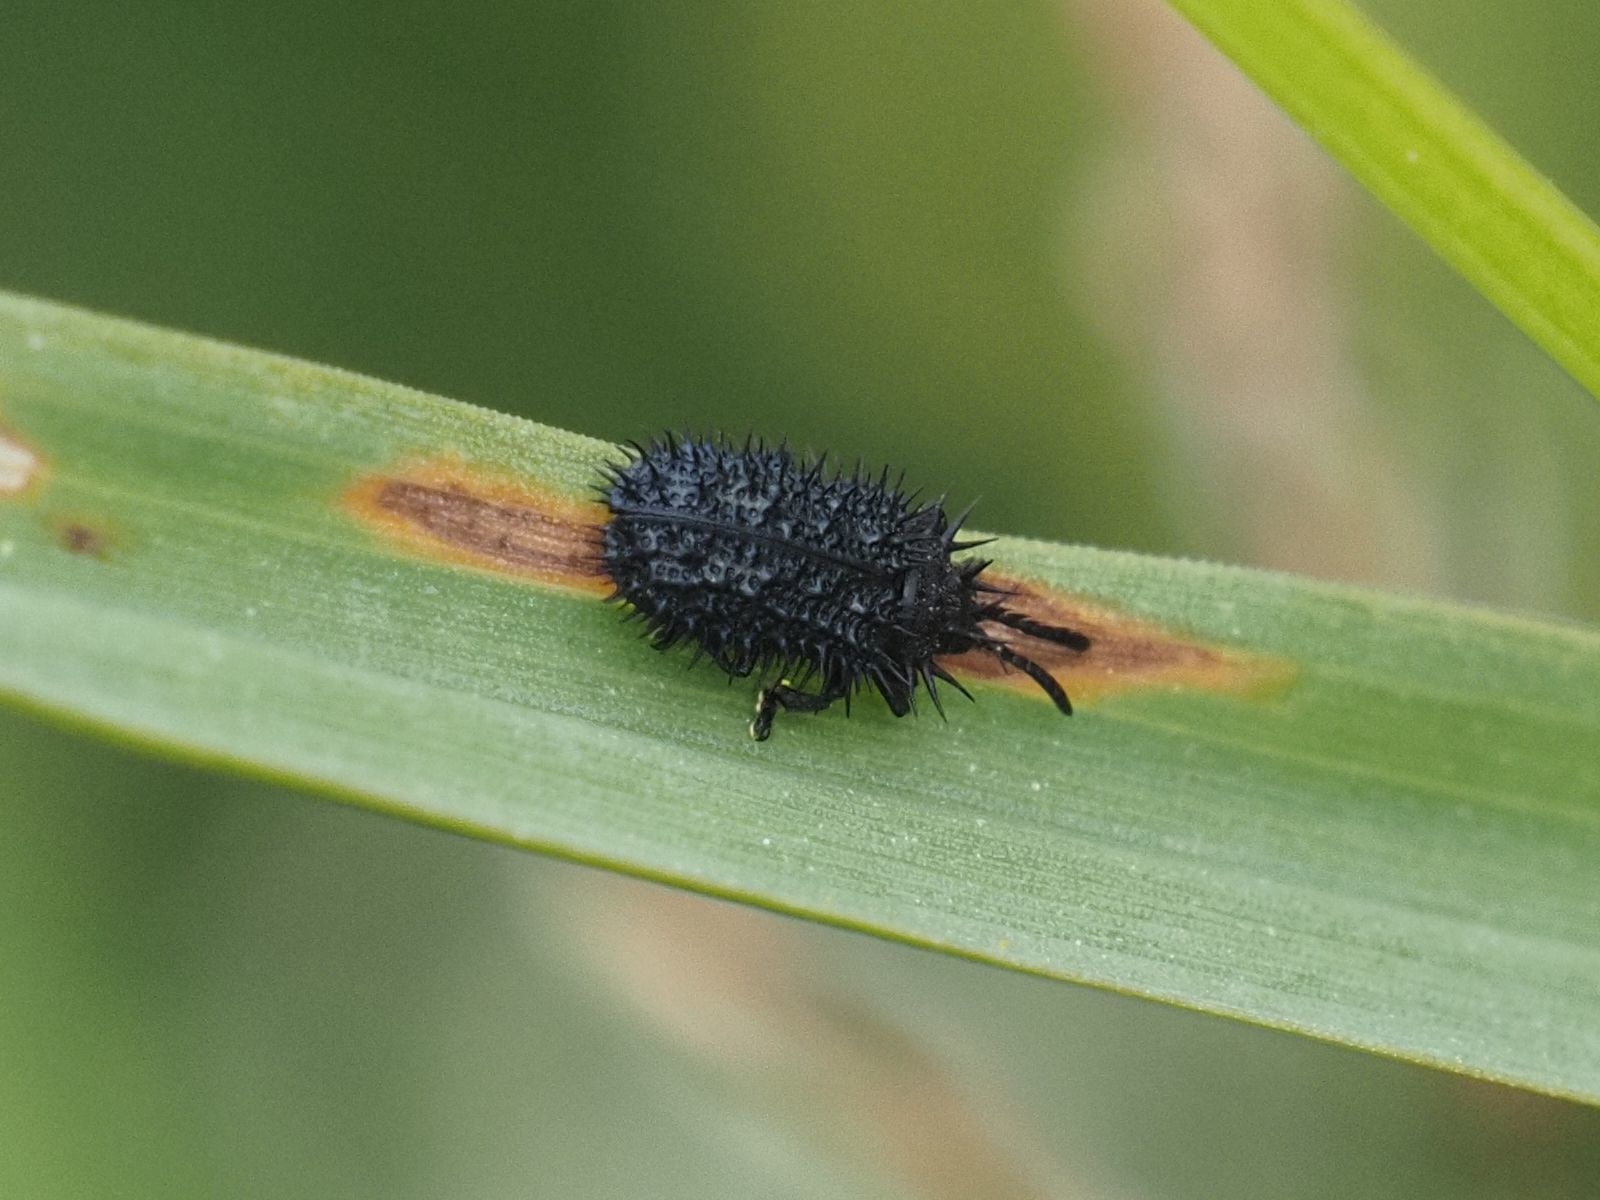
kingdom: Animalia
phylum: Arthropoda
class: Insecta
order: Coleoptera
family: Chrysomelidae
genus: Hispa
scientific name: Hispa atra
